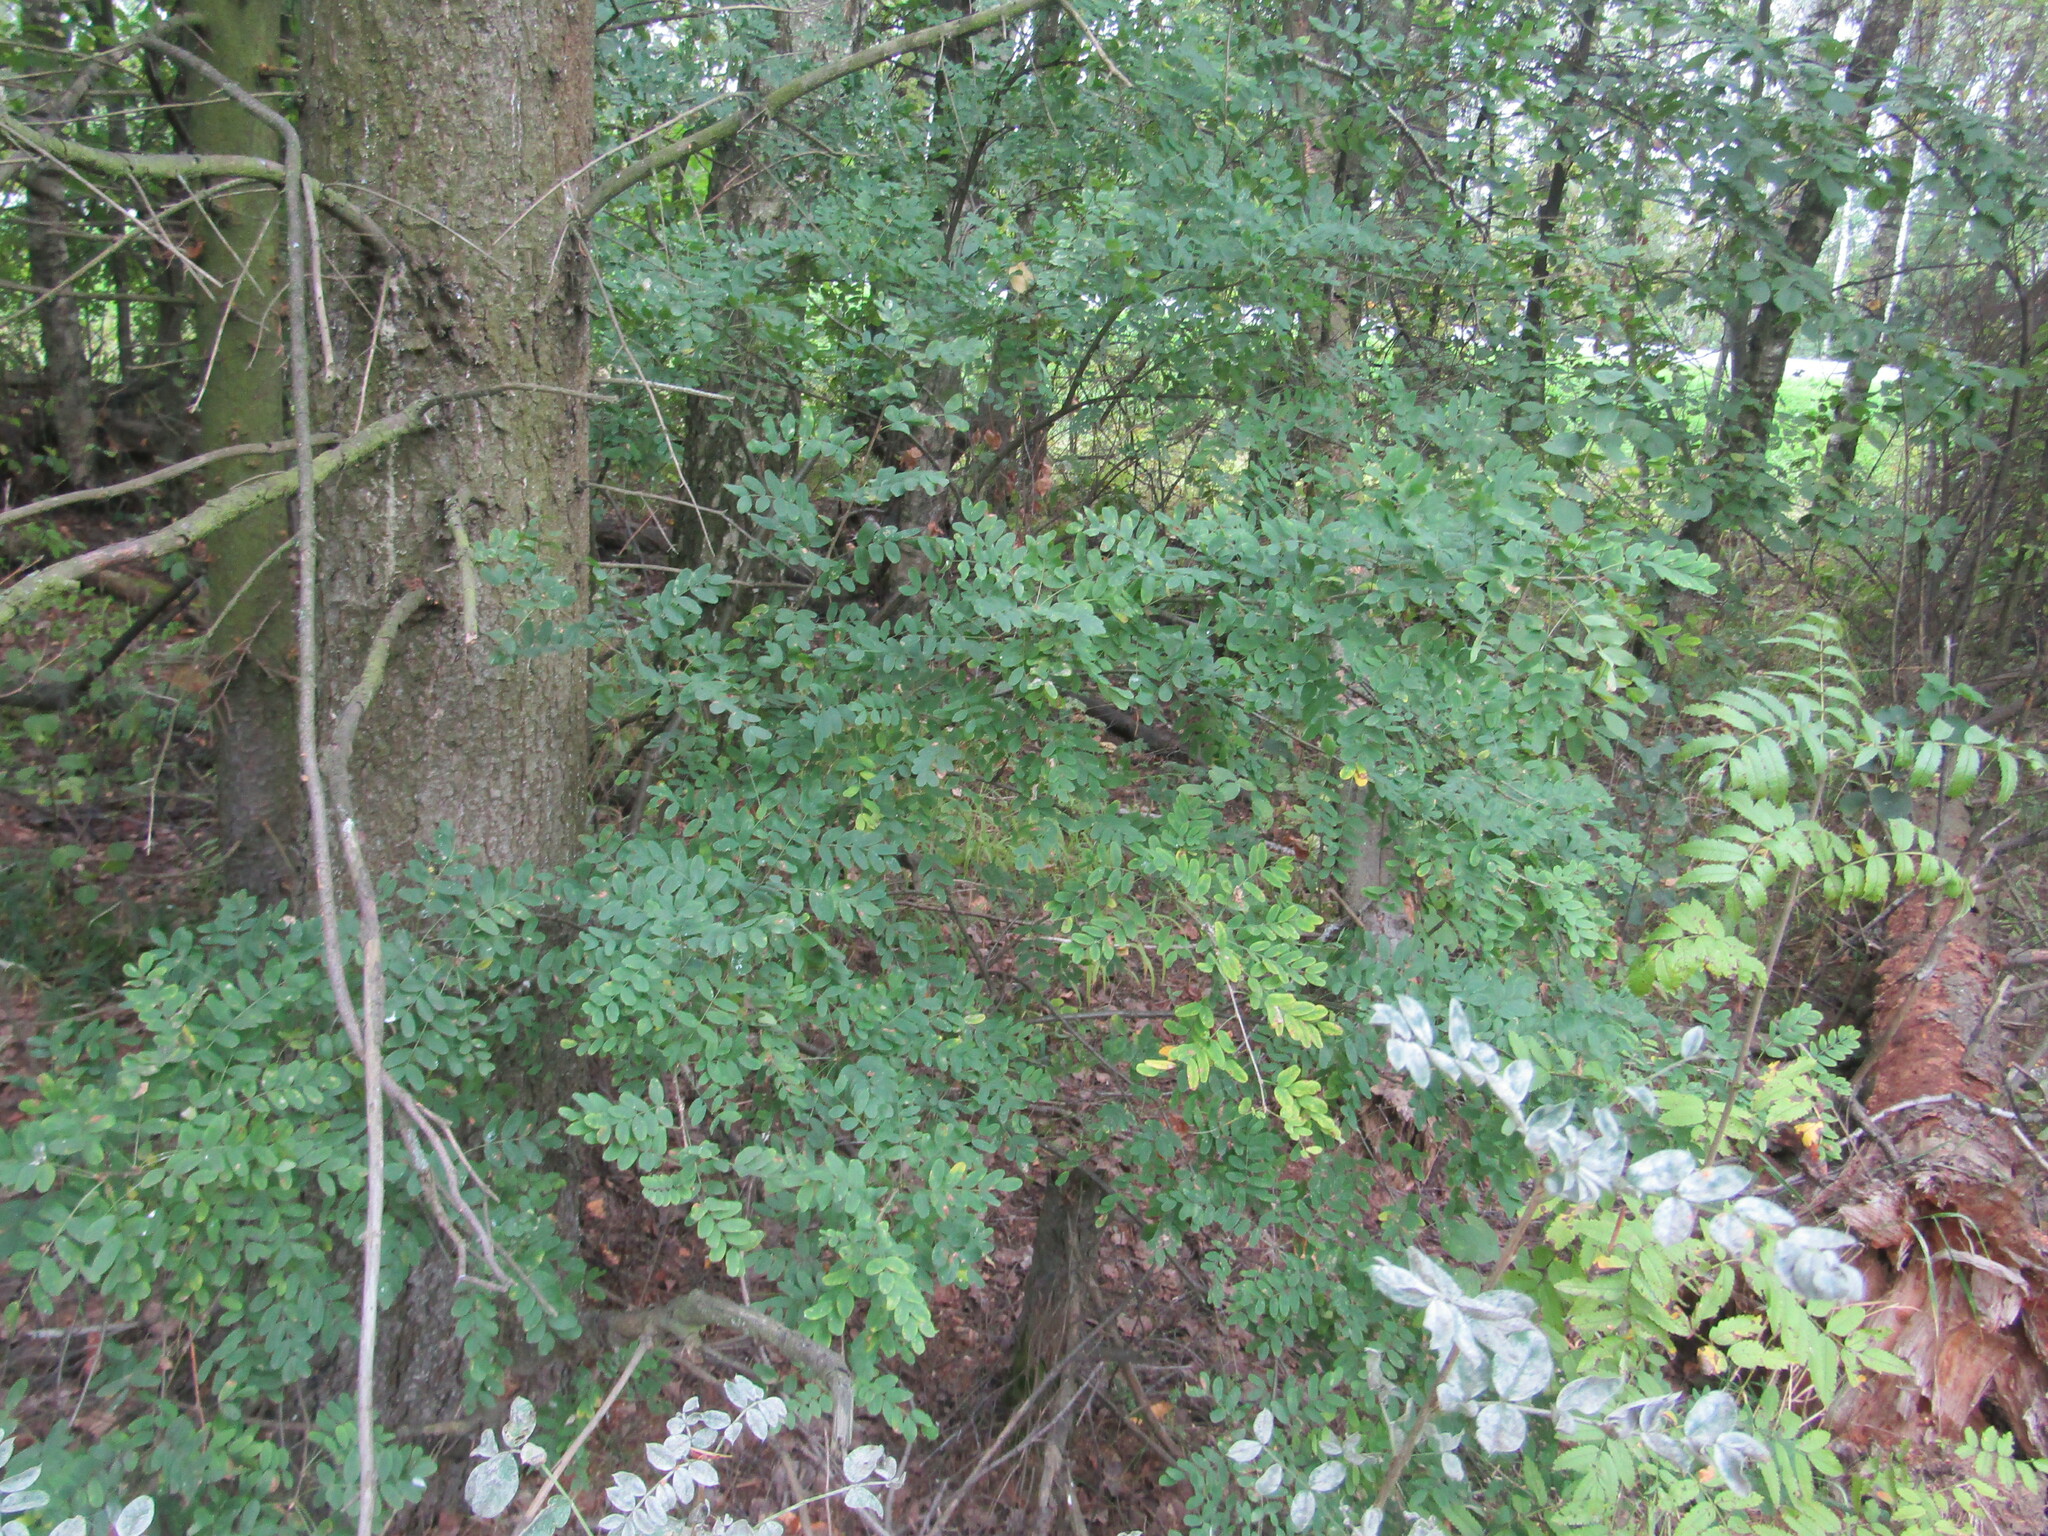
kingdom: Plantae
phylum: Tracheophyta
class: Magnoliopsida
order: Fabales
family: Fabaceae
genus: Caragana
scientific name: Caragana arborescens
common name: Siberian peashrub
